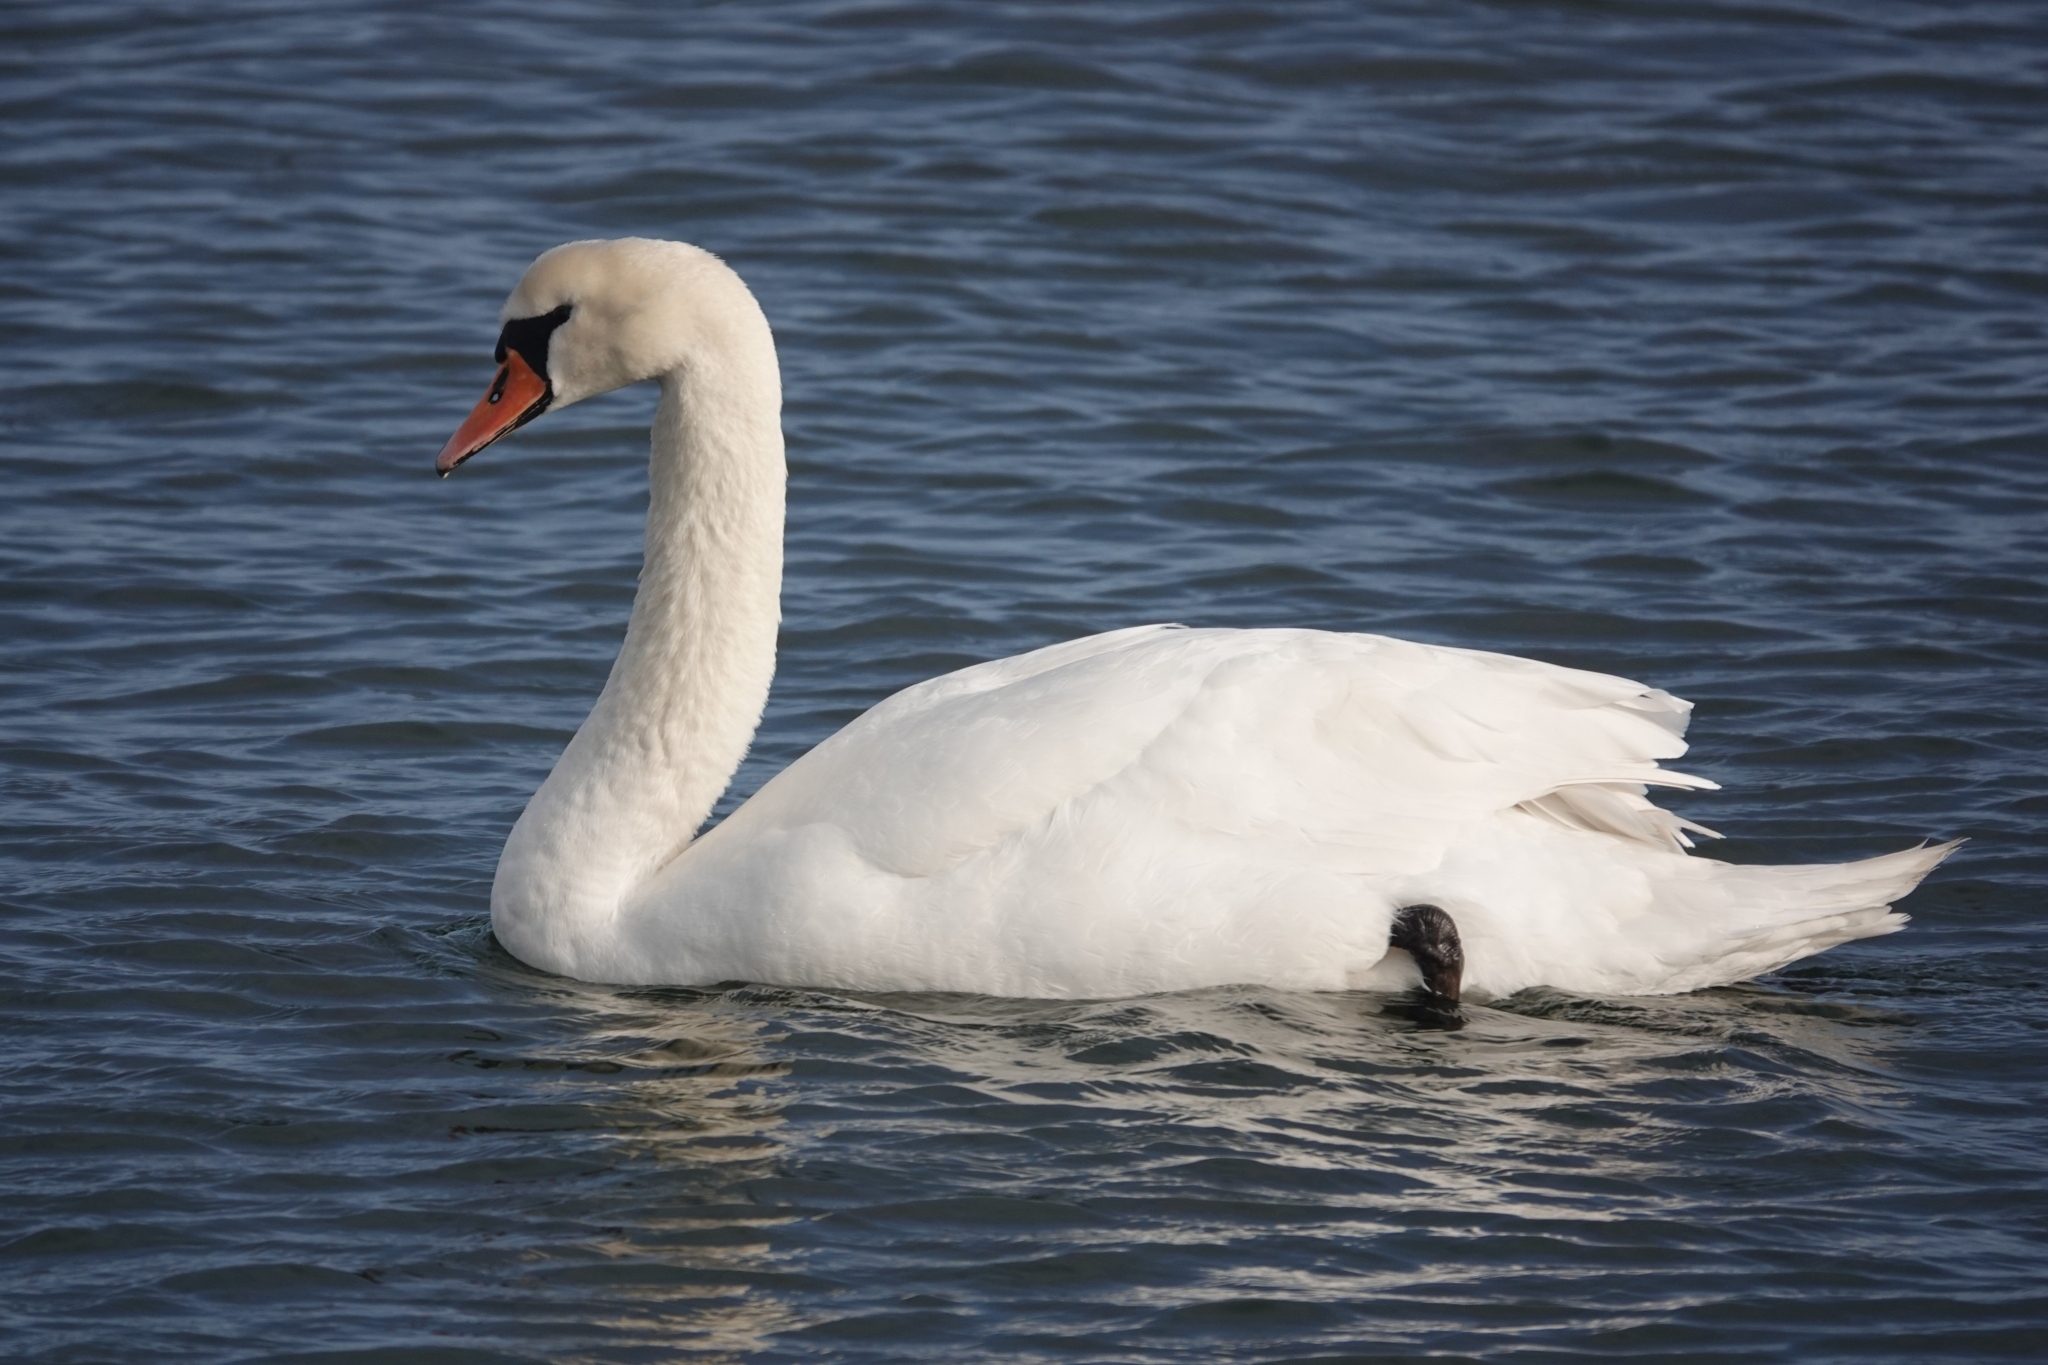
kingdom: Animalia
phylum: Chordata
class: Aves
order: Anseriformes
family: Anatidae
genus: Cygnus
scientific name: Cygnus olor
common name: Mute swan
